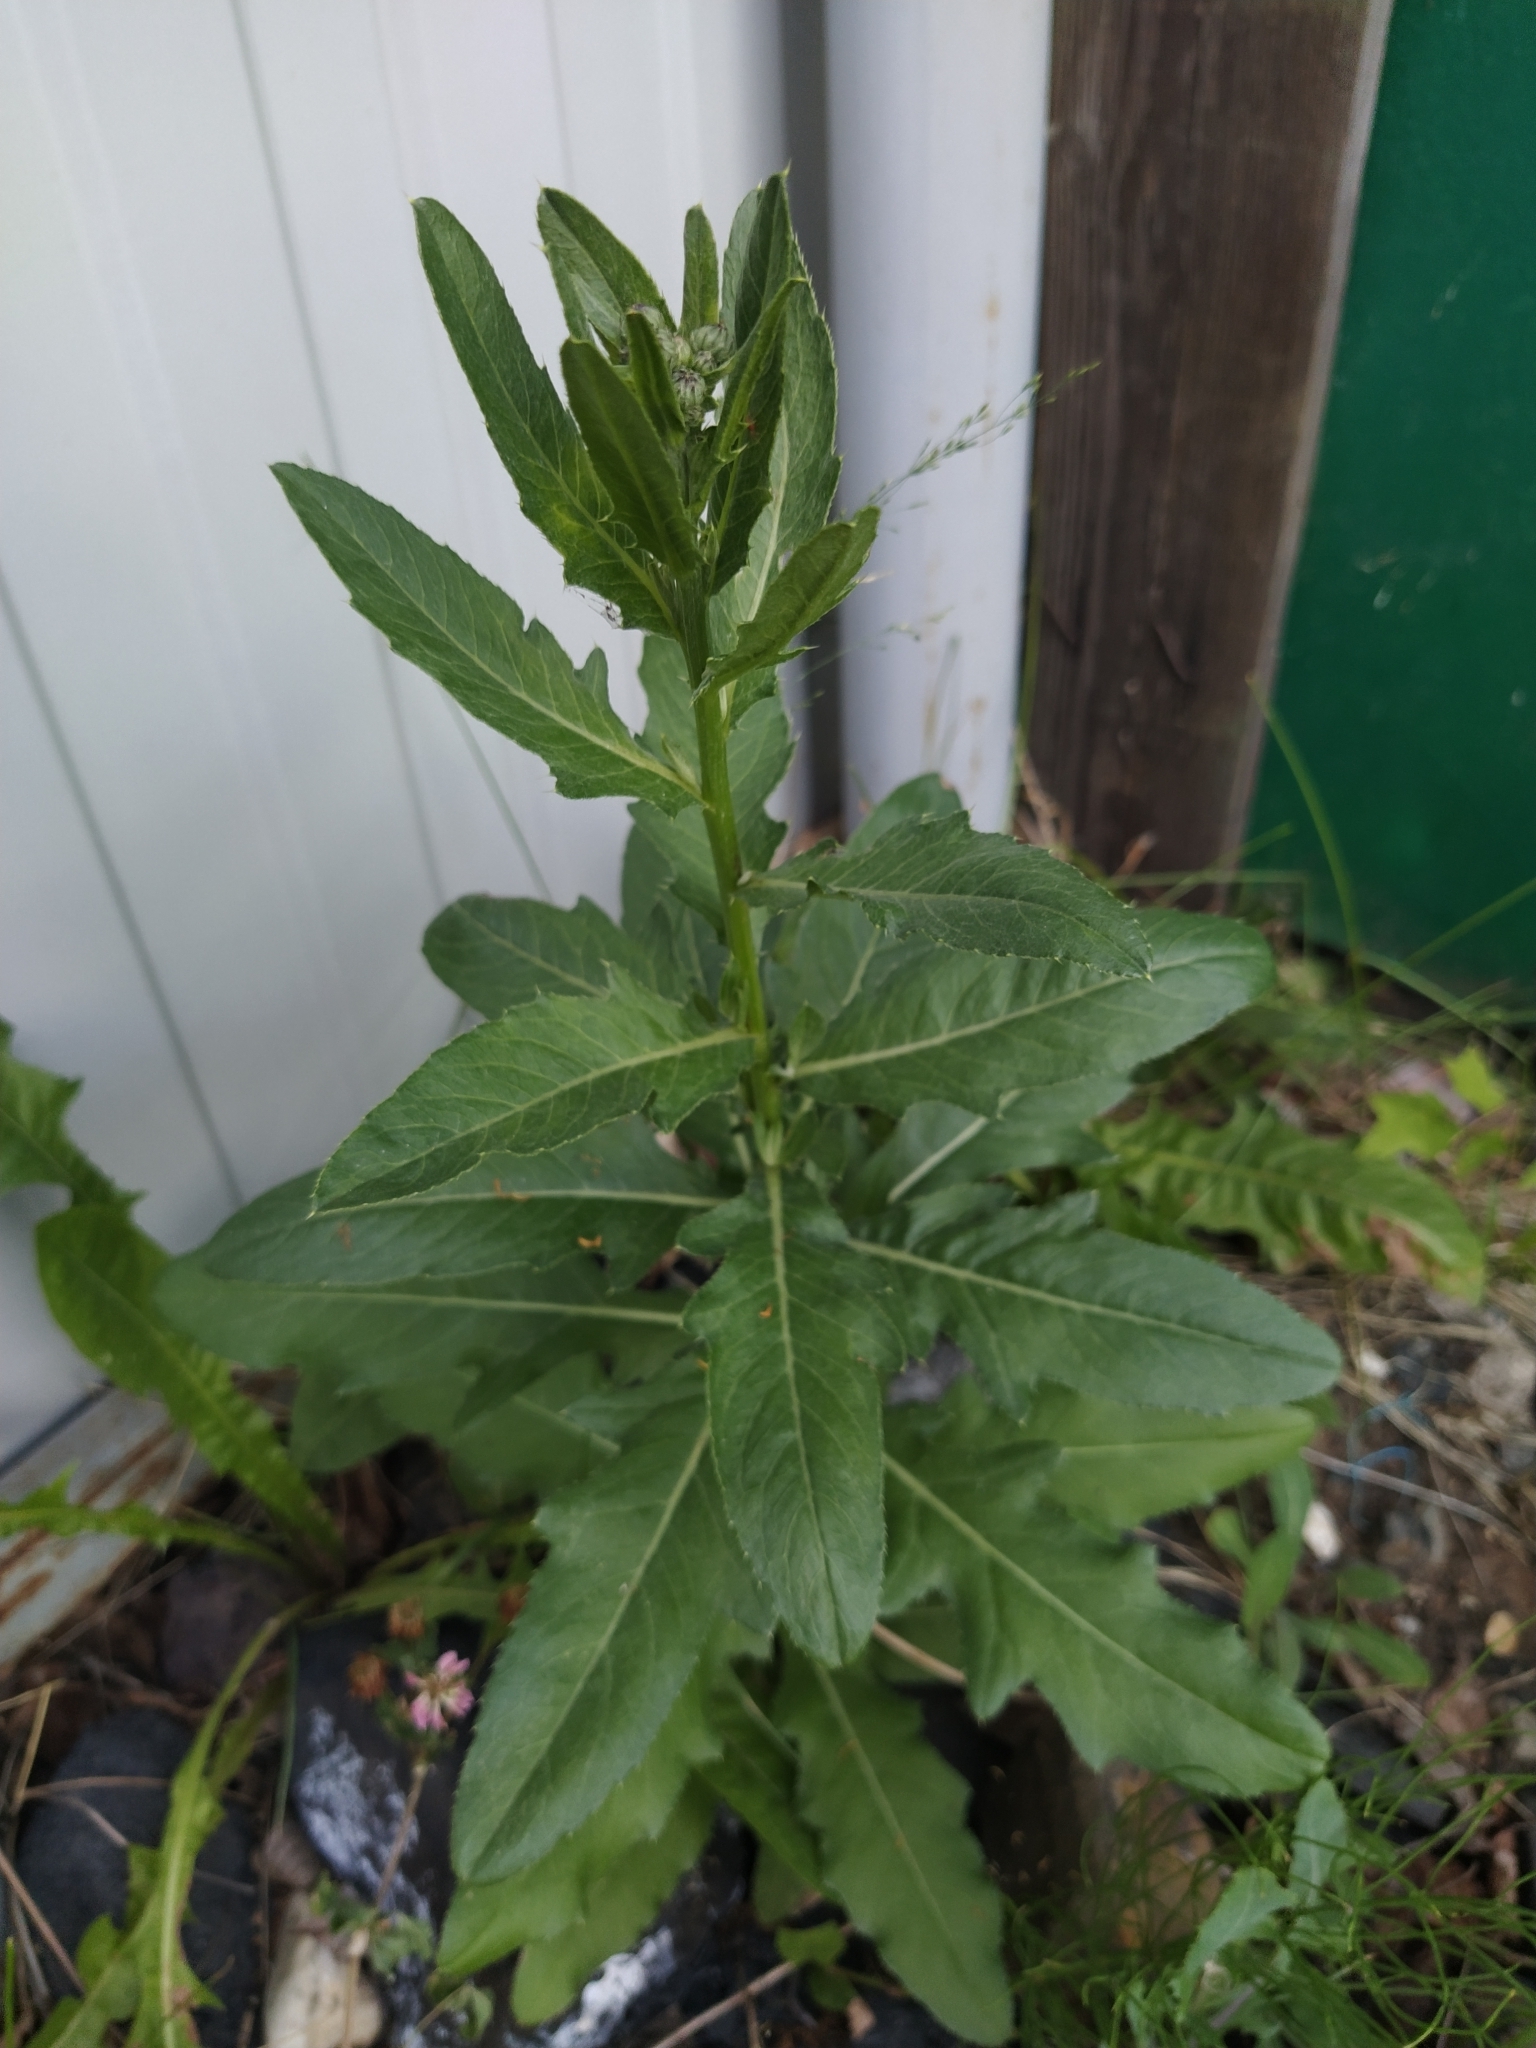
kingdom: Plantae
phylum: Tracheophyta
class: Magnoliopsida
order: Asterales
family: Asteraceae
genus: Cirsium
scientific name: Cirsium arvense
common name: Creeping thistle
